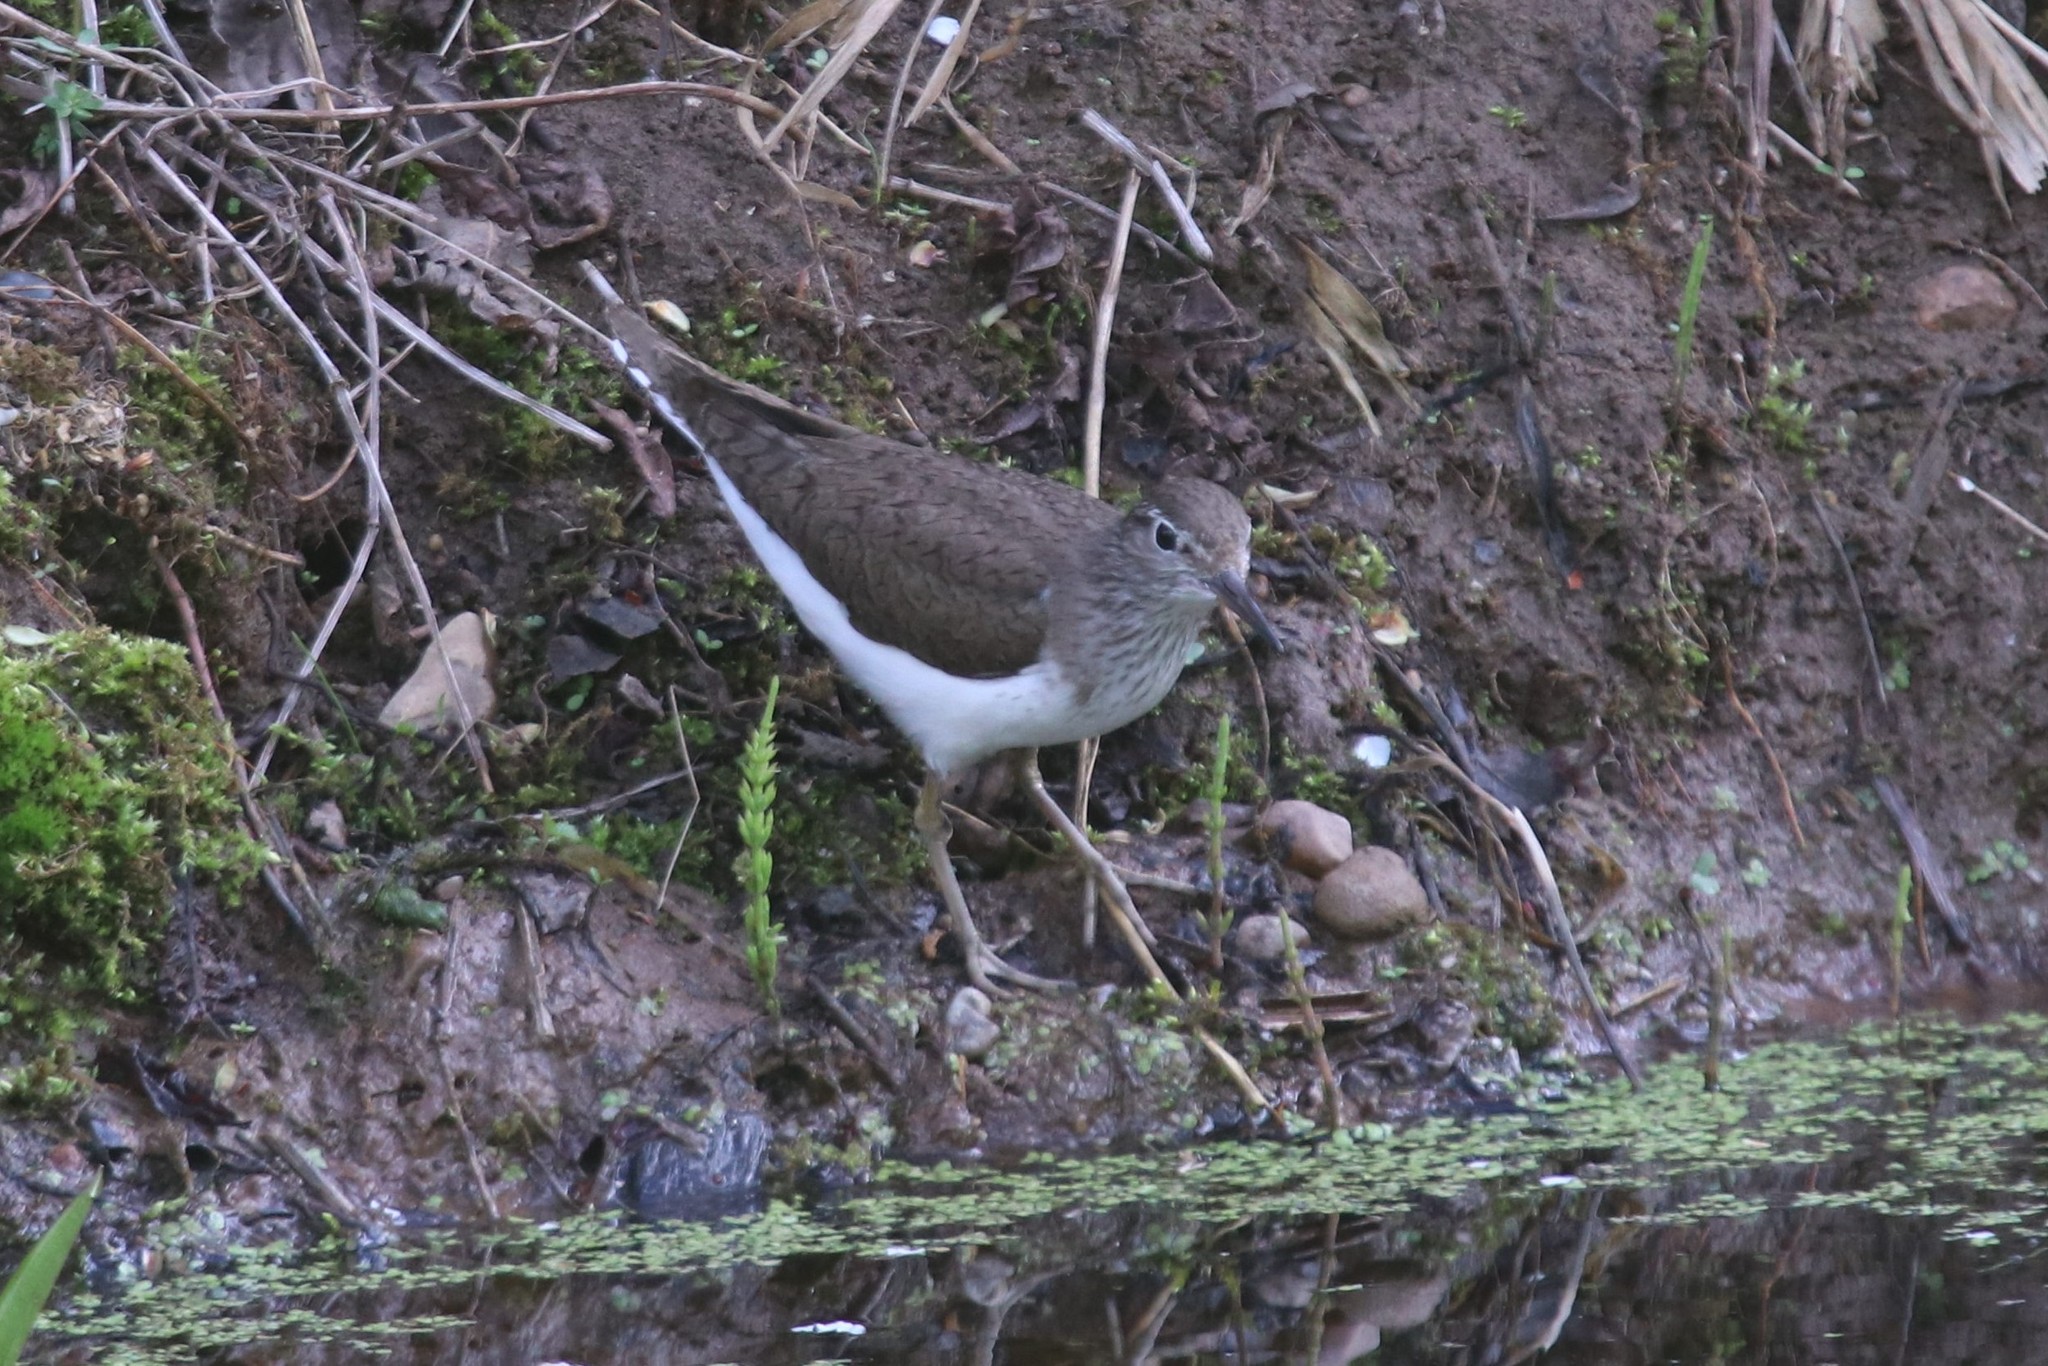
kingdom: Animalia
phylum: Chordata
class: Aves
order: Charadriiformes
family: Scolopacidae
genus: Actitis
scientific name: Actitis hypoleucos
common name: Common sandpiper
